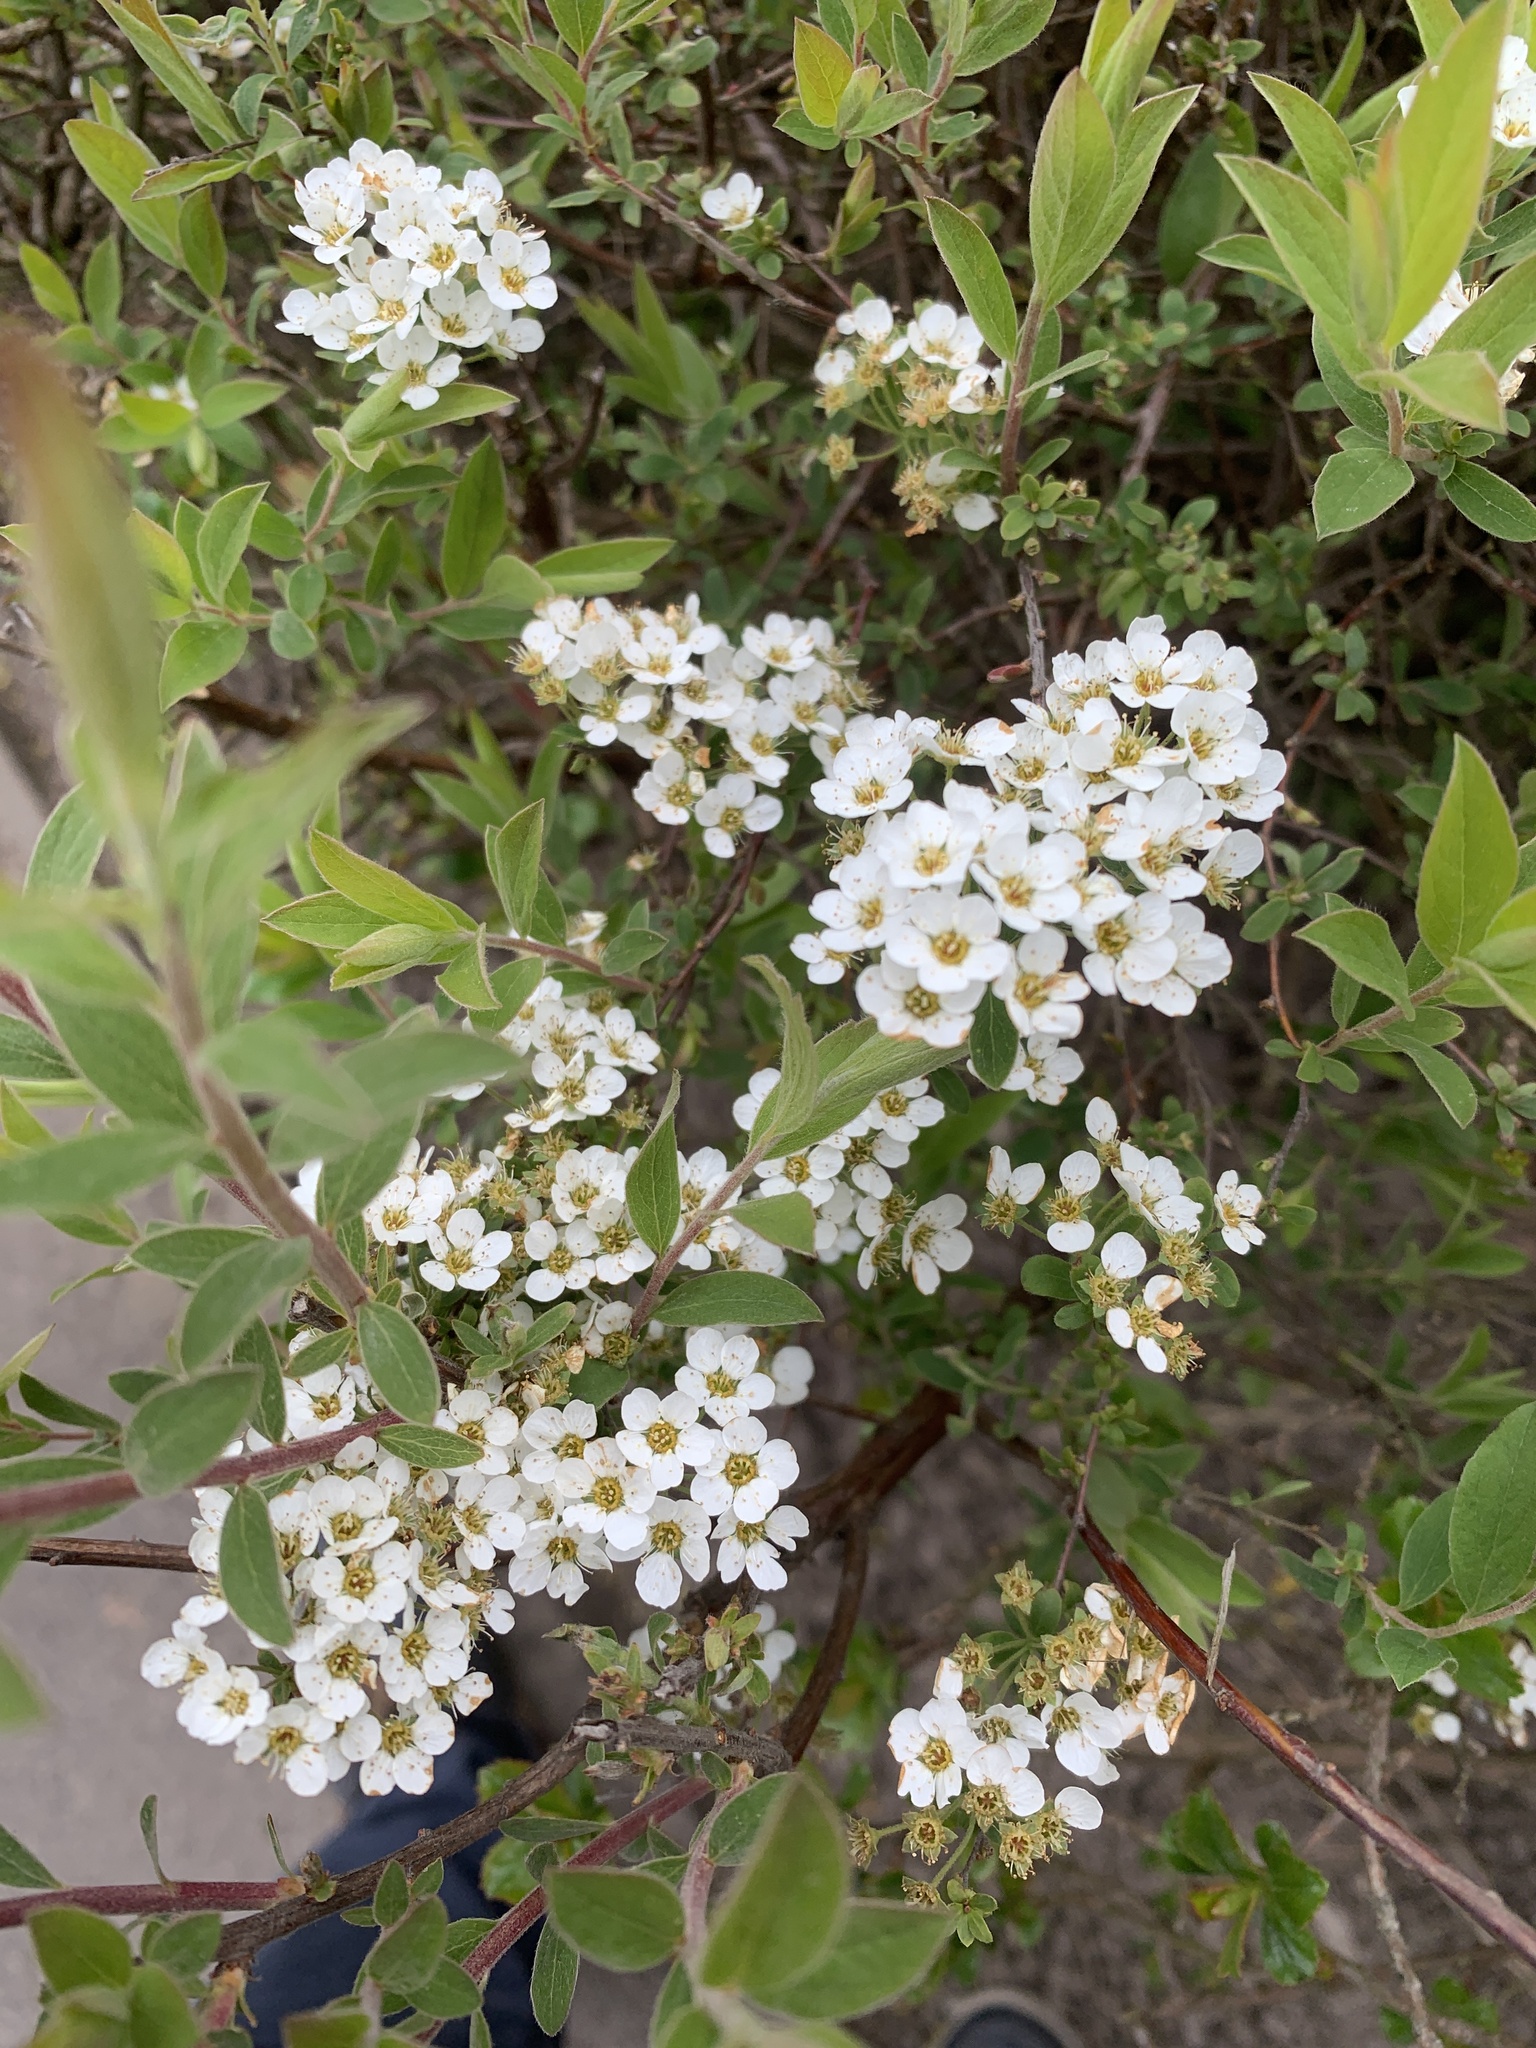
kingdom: Plantae
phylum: Tracheophyta
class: Magnoliopsida
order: Rosales
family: Rosaceae
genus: Spiraea
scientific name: Spiraea cantoniensis
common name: Reeves' meadowsweet
